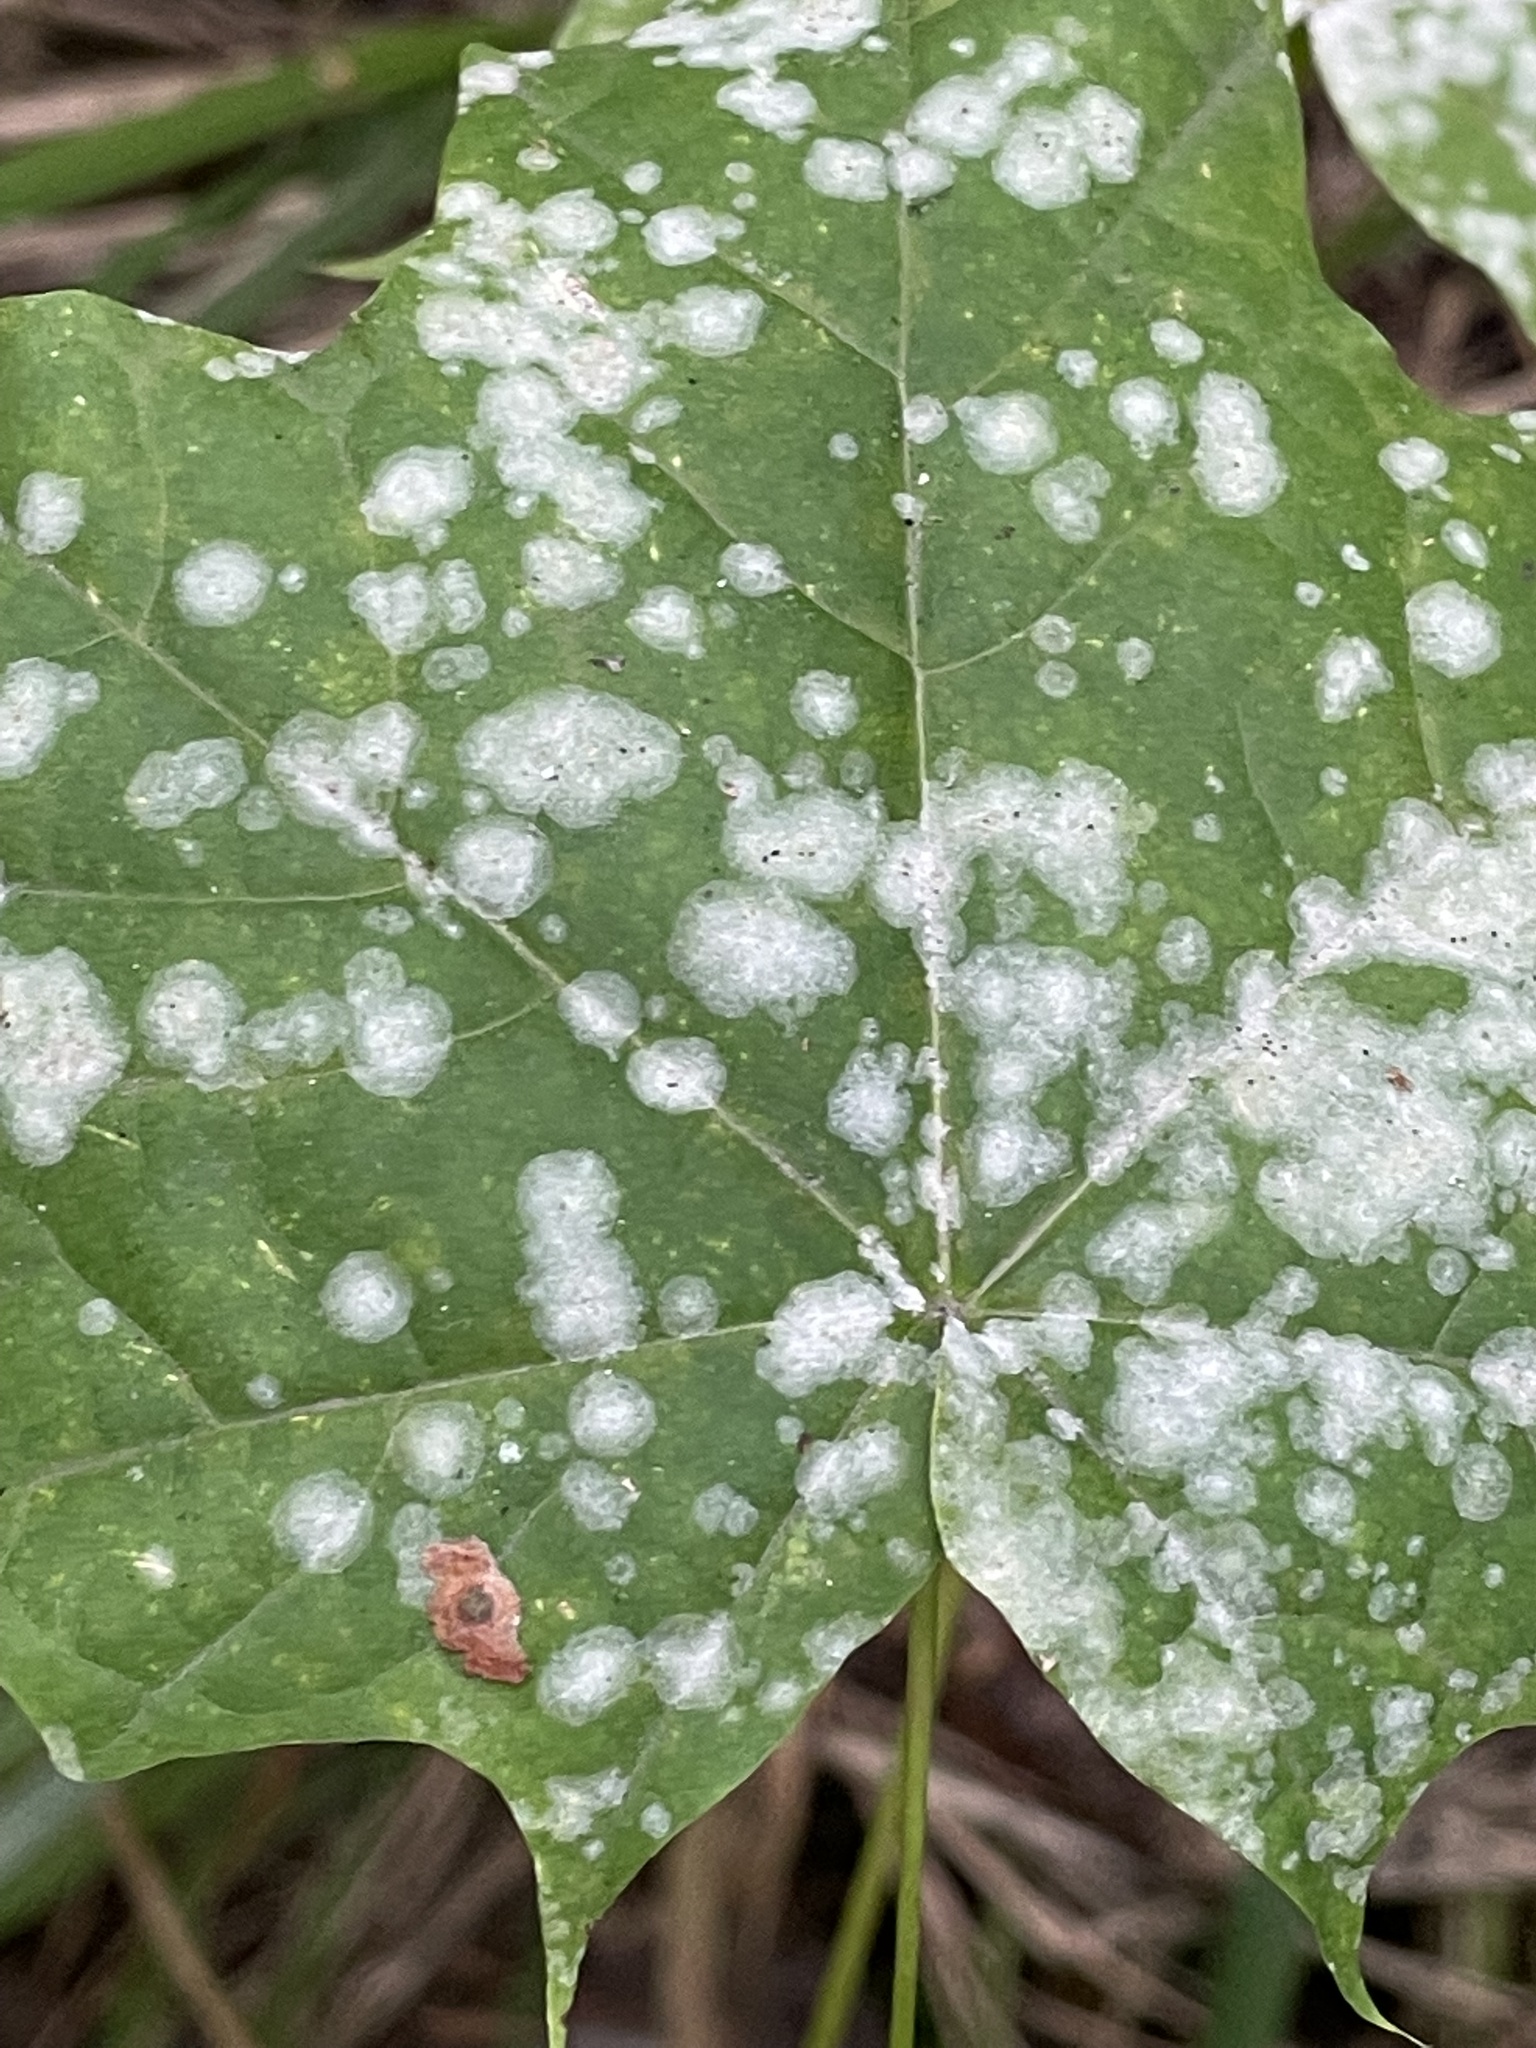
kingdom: Fungi
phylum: Ascomycota
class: Leotiomycetes
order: Helotiales
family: Erysiphaceae
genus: Sawadaea
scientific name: Sawadaea tulasnei
